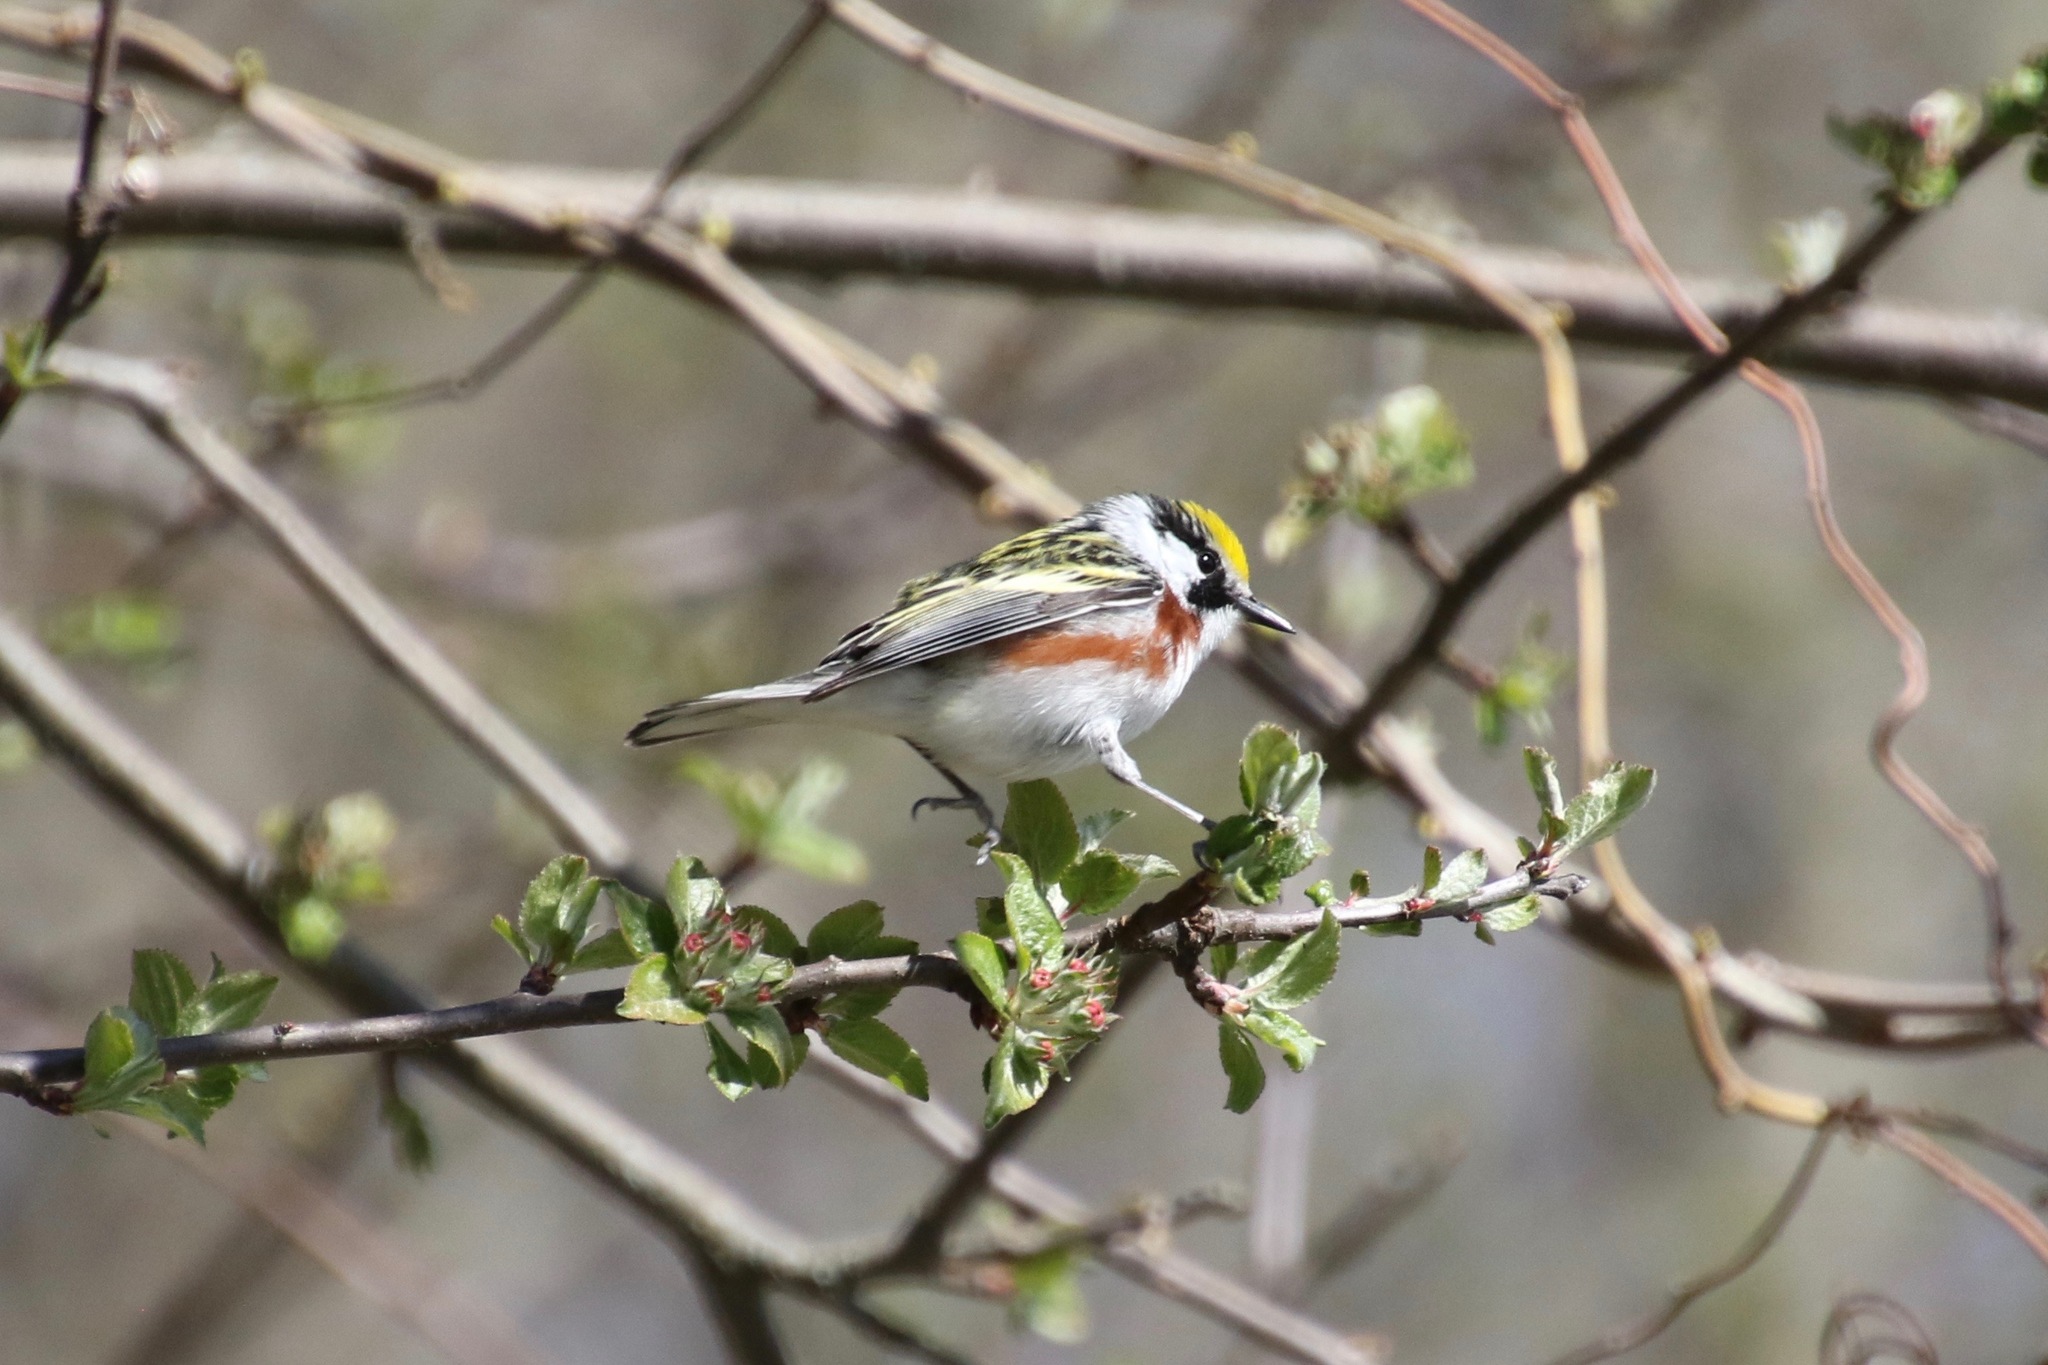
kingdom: Animalia
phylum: Chordata
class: Aves
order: Passeriformes
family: Parulidae
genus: Setophaga
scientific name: Setophaga pensylvanica
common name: Chestnut-sided warbler
